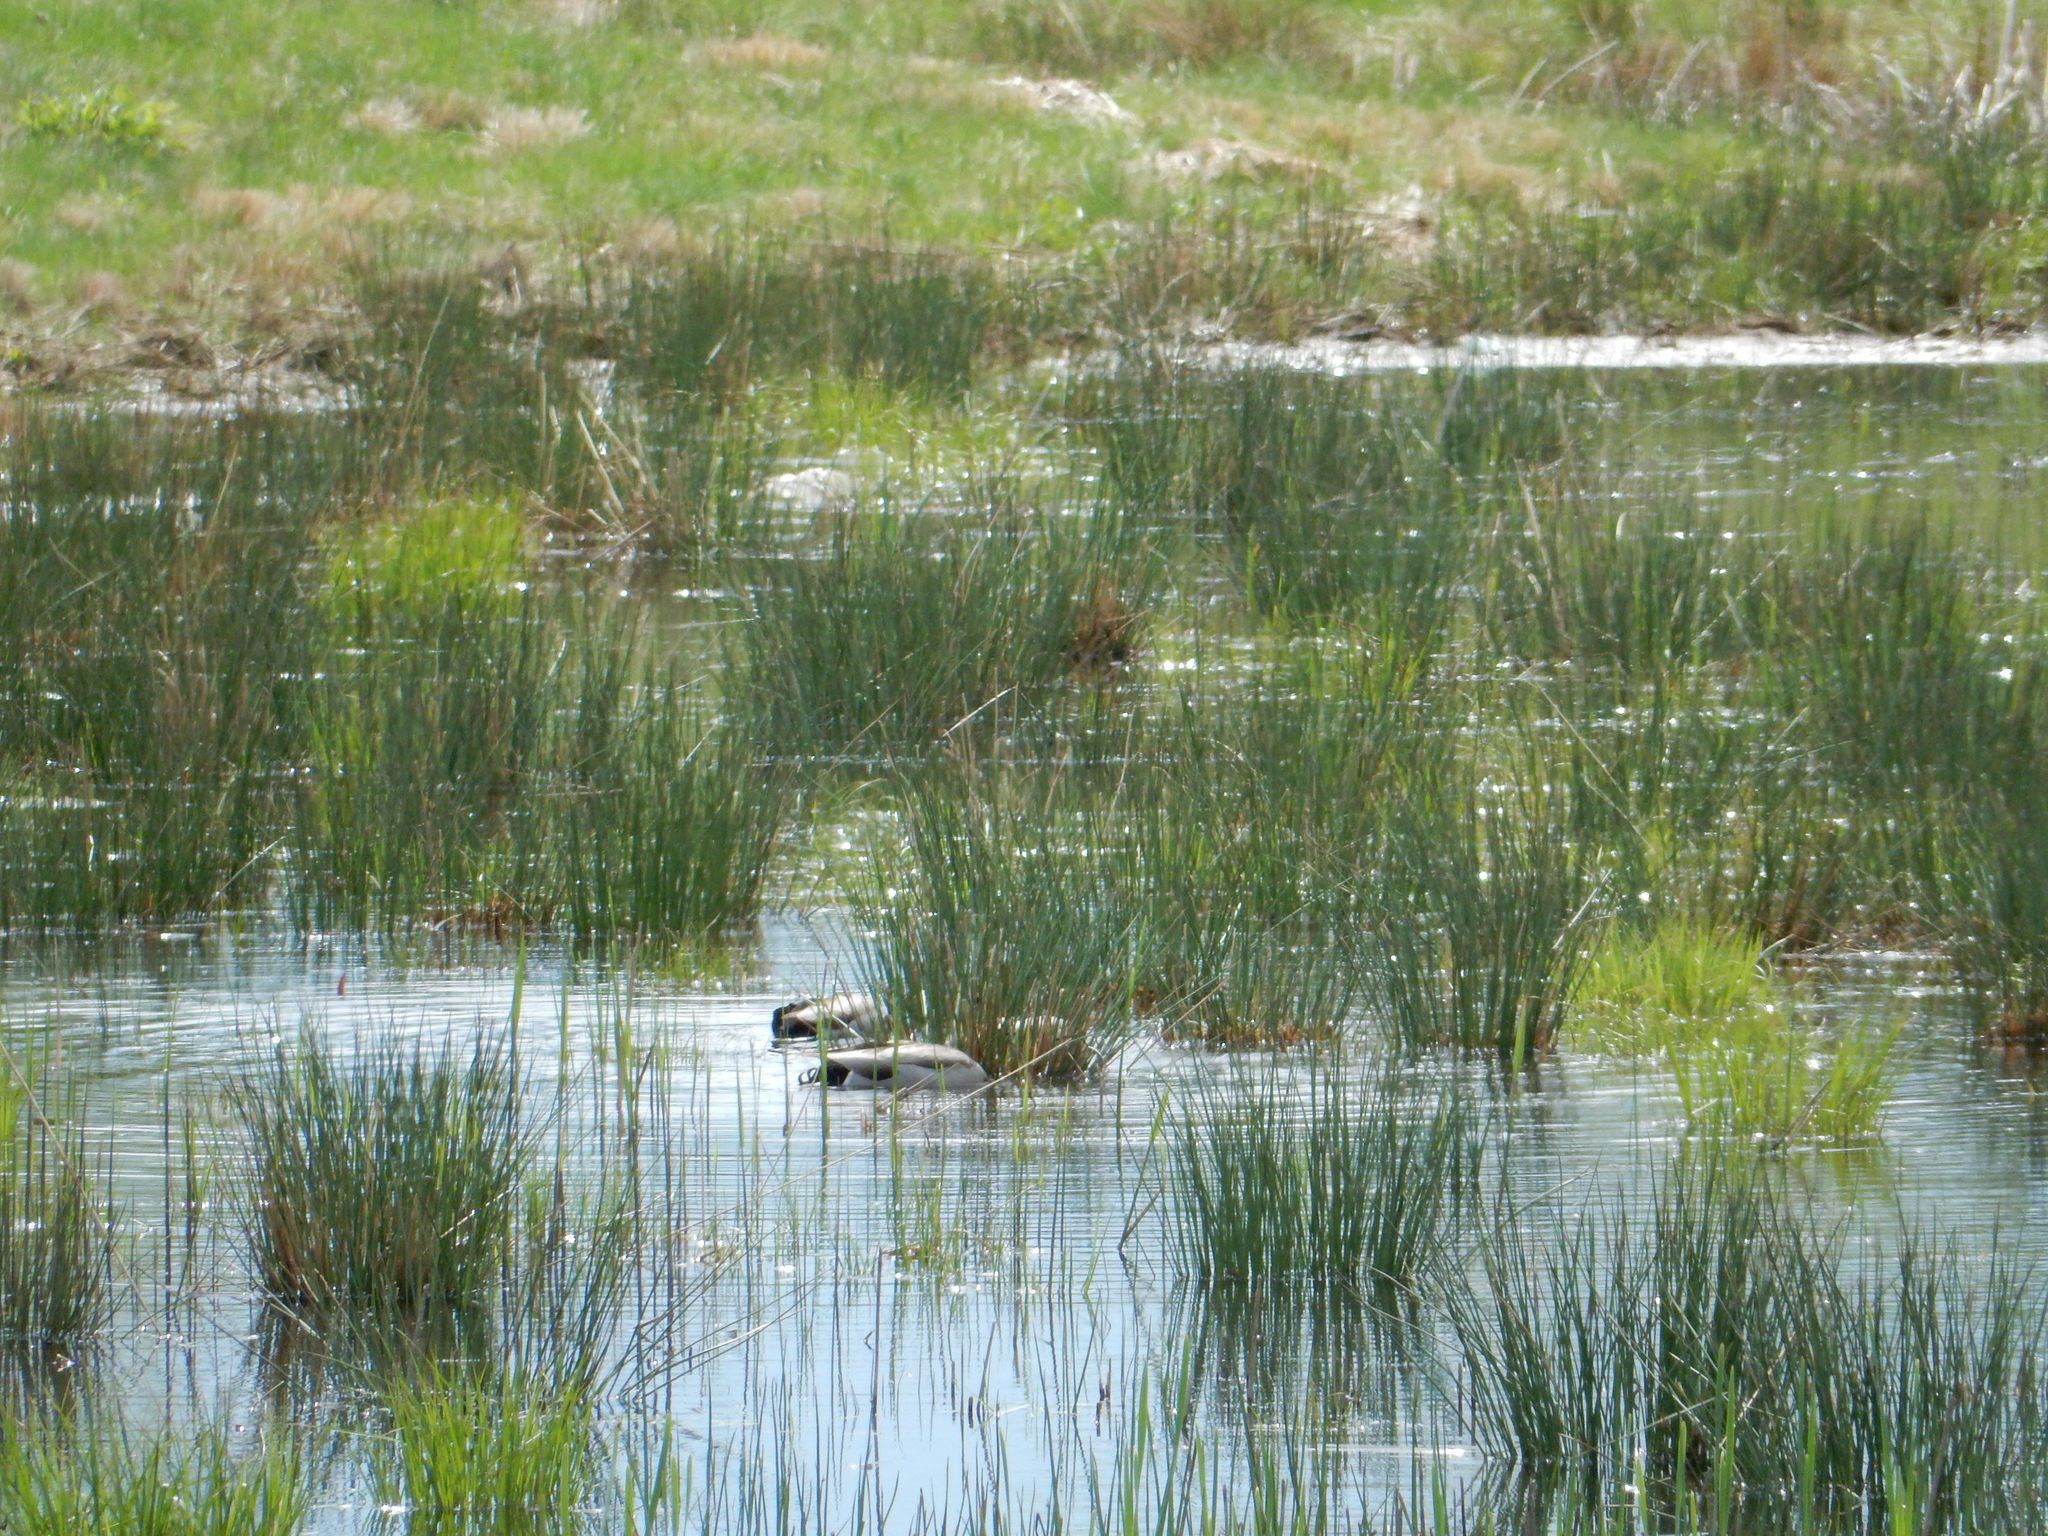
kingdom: Animalia
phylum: Chordata
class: Aves
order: Anseriformes
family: Anatidae
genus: Anas
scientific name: Anas platyrhynchos
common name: Mallard
